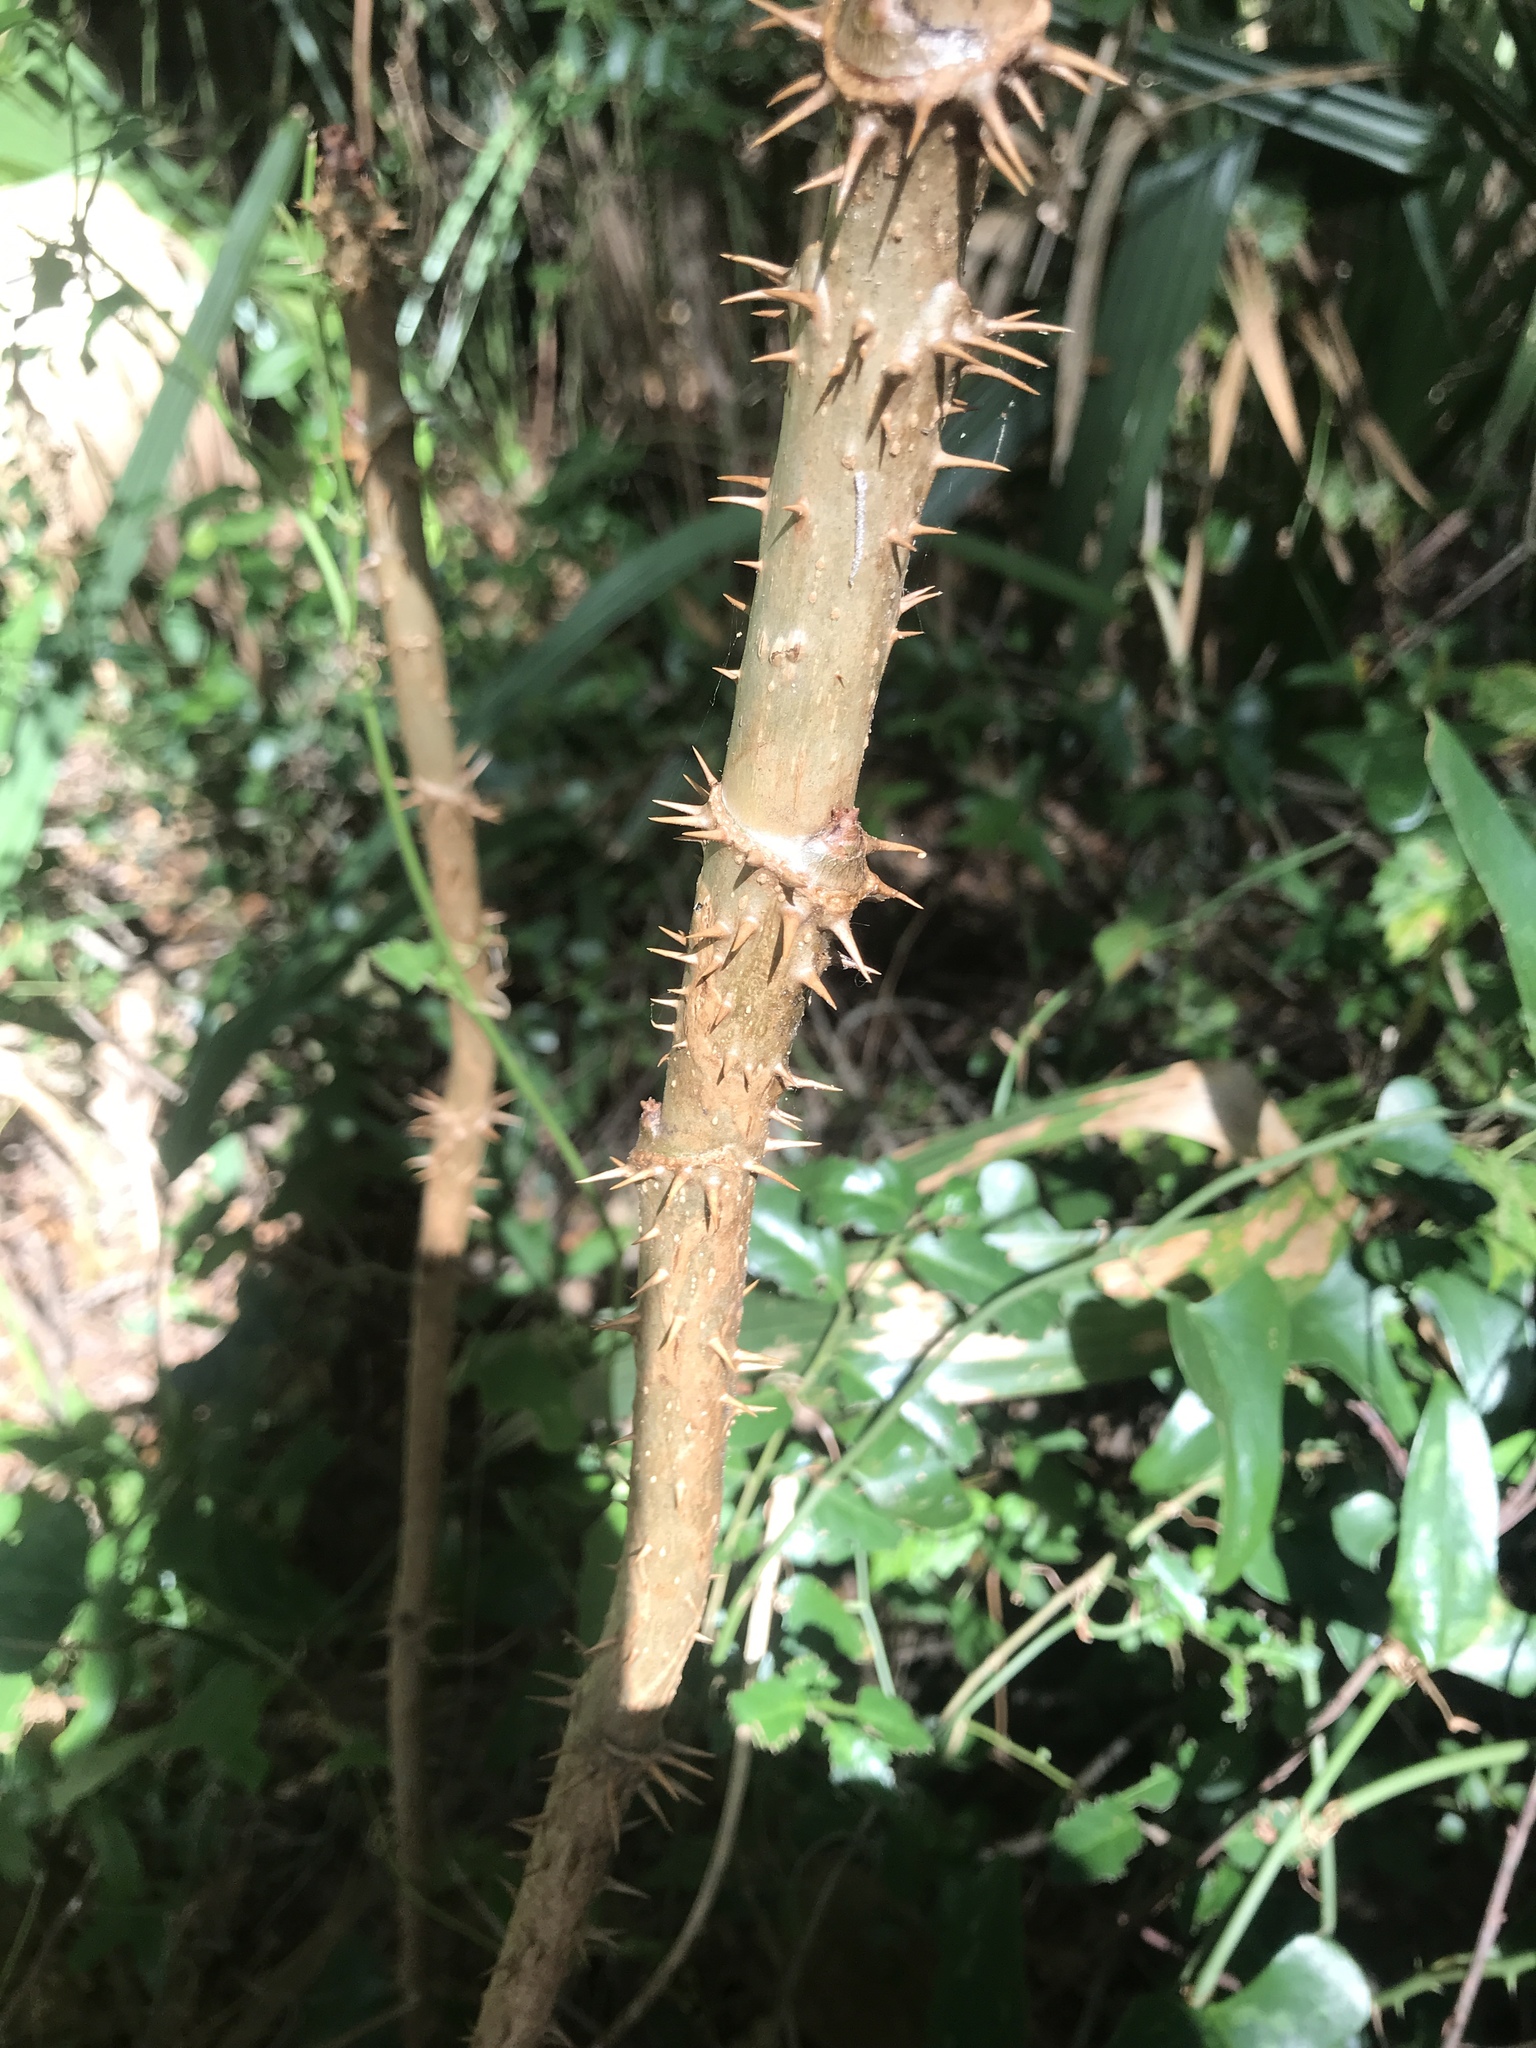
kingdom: Plantae
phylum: Tracheophyta
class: Magnoliopsida
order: Apiales
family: Araliaceae
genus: Aralia
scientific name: Aralia spinosa
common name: Hercules'-club
